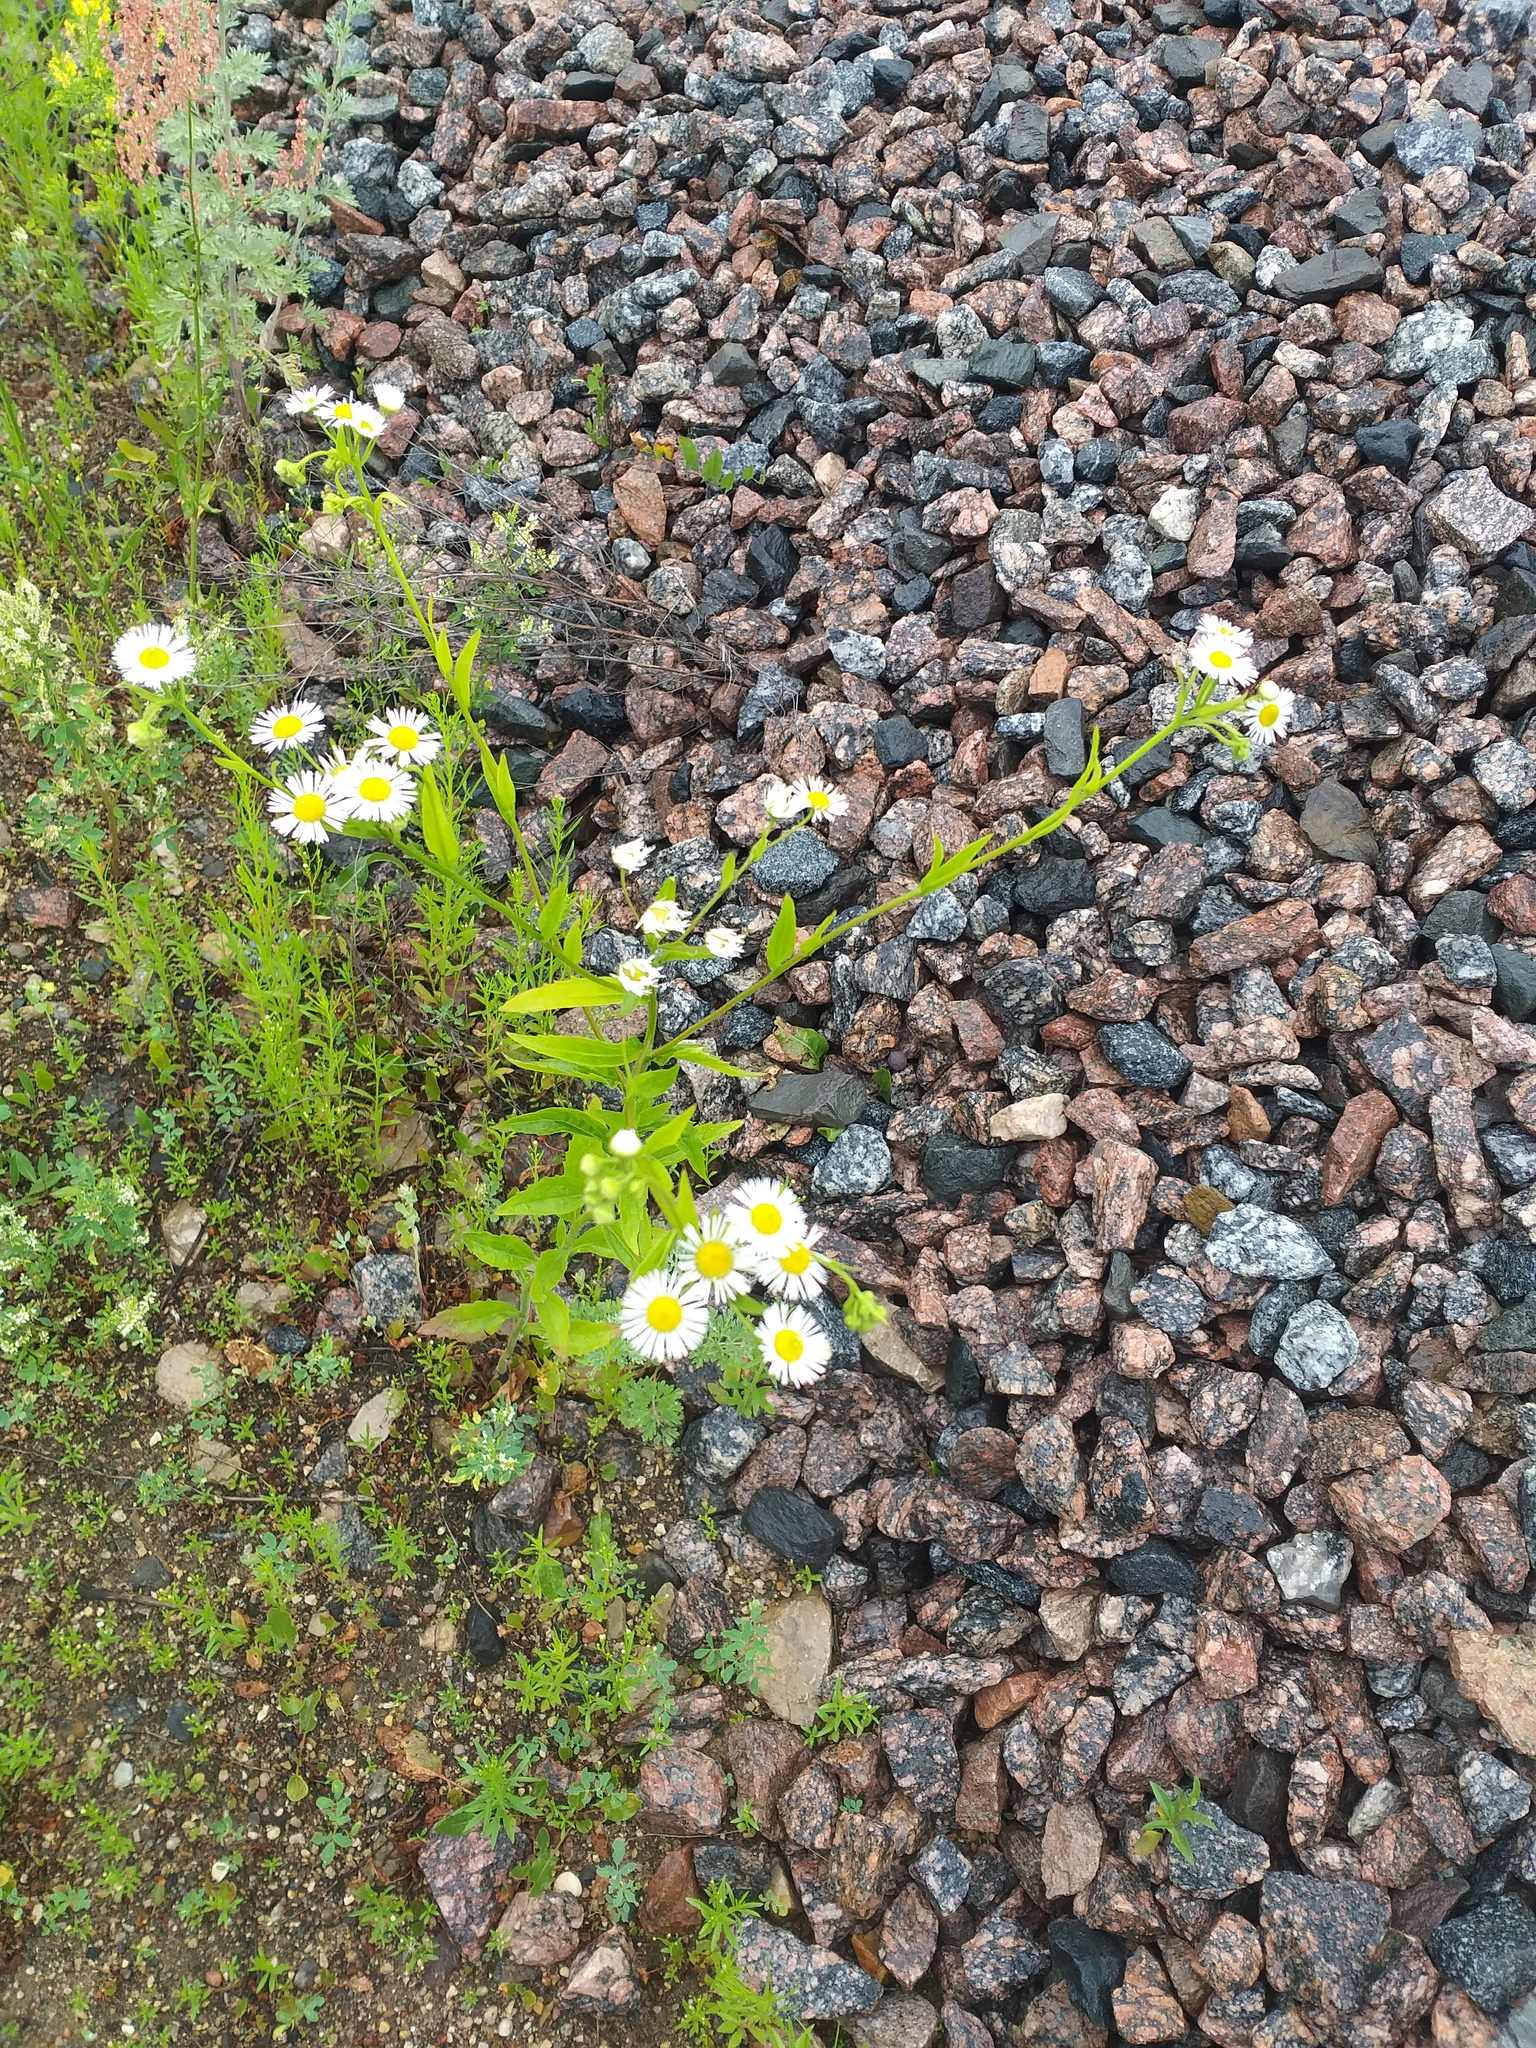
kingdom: Plantae
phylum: Tracheophyta
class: Magnoliopsida
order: Asterales
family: Asteraceae
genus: Erigeron
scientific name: Erigeron annuus
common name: Tall fleabane
